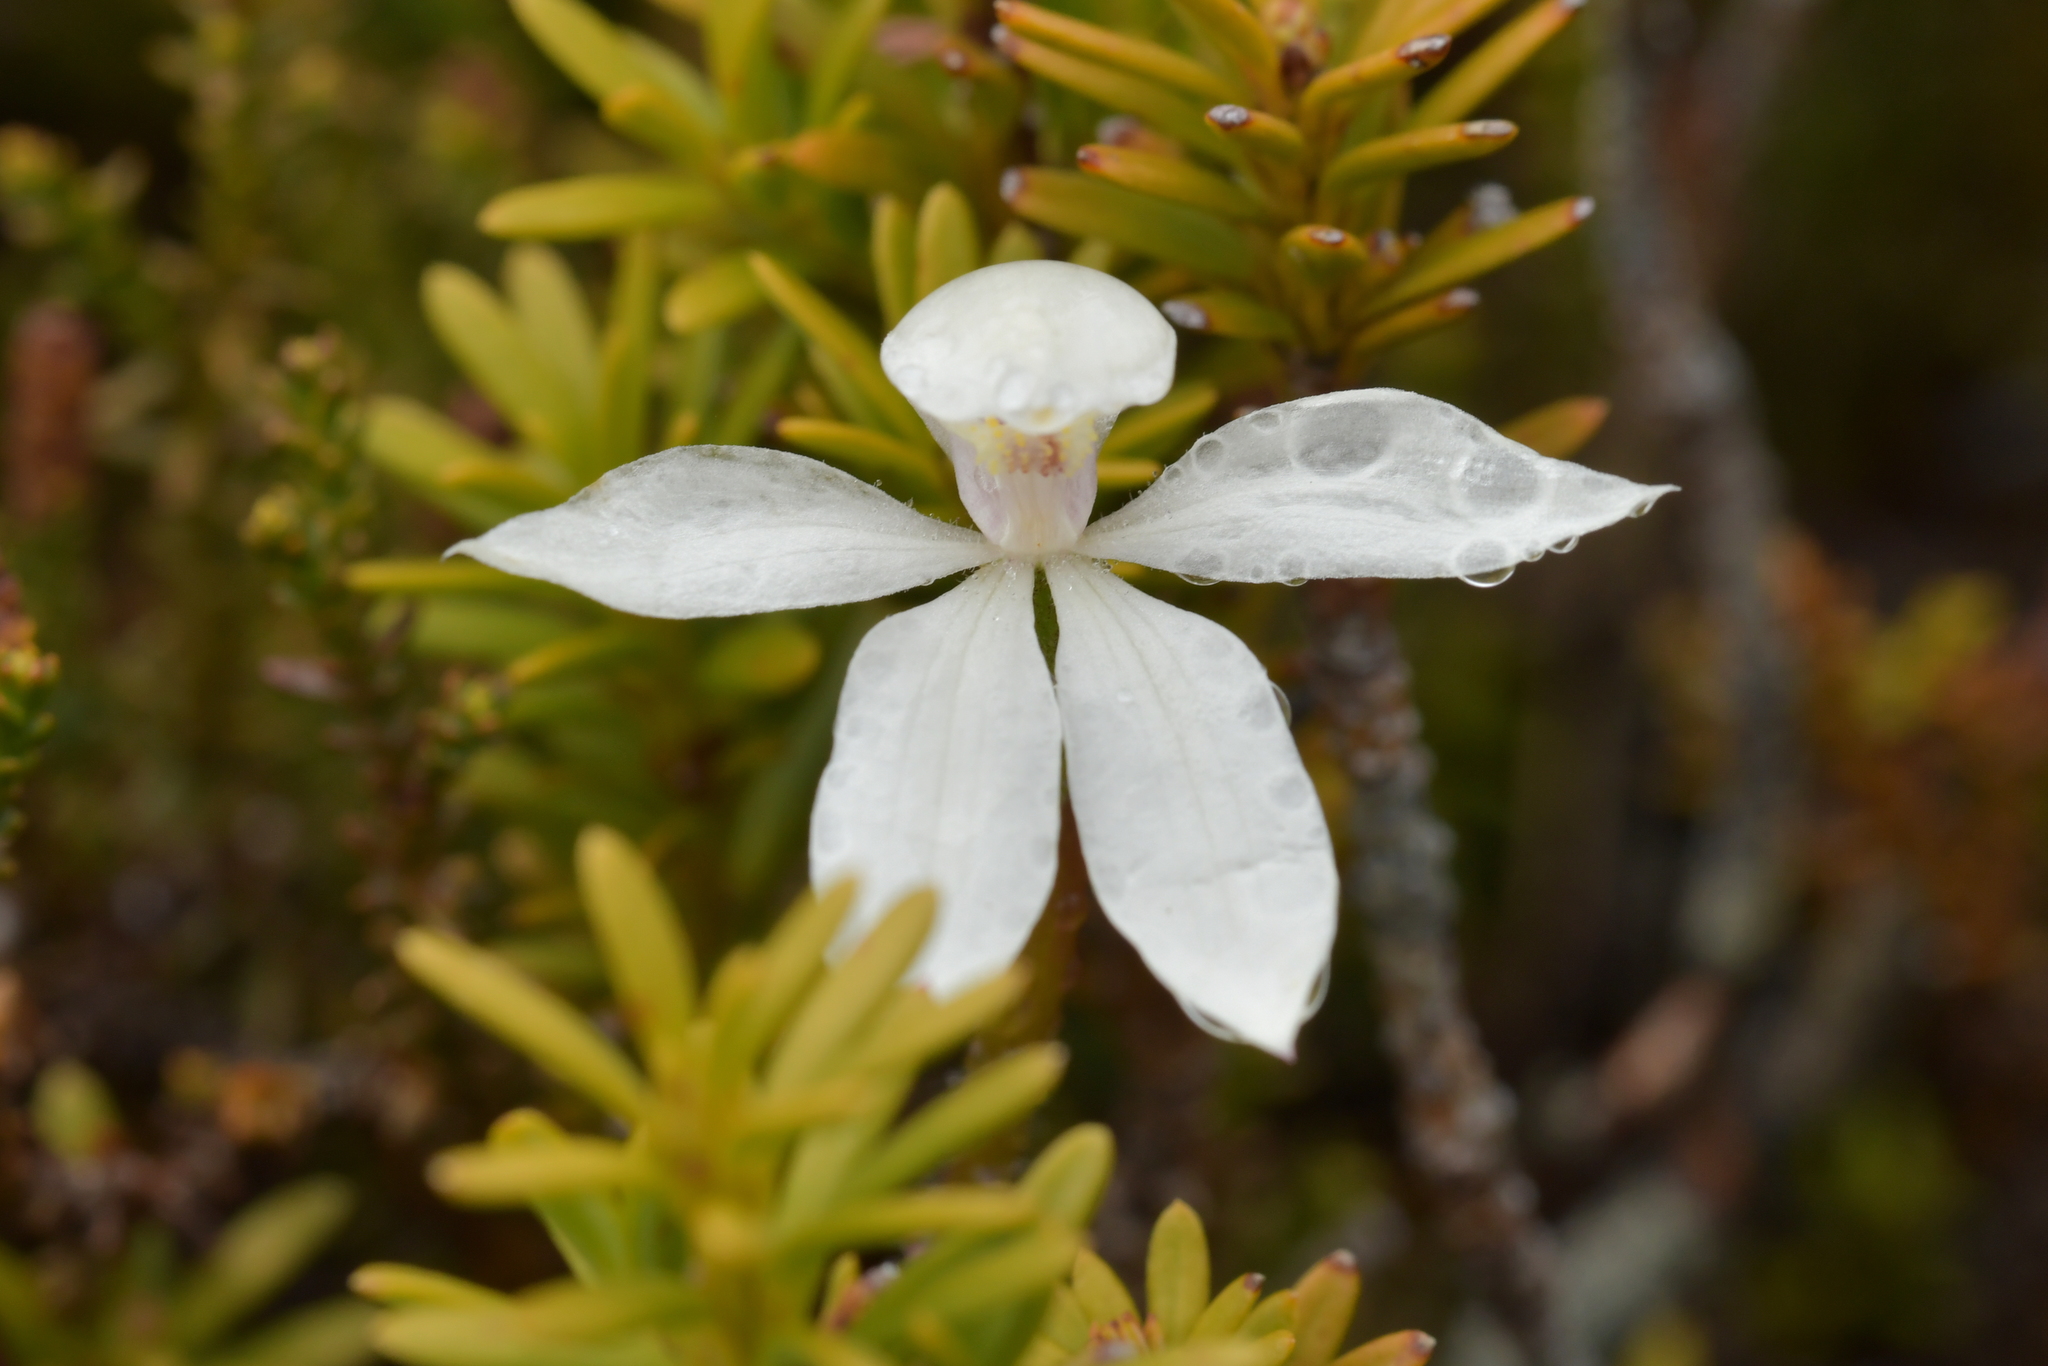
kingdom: Plantae
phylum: Tracheophyta
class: Liliopsida
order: Asparagales
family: Orchidaceae
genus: Caladenia
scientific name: Caladenia lyallii
